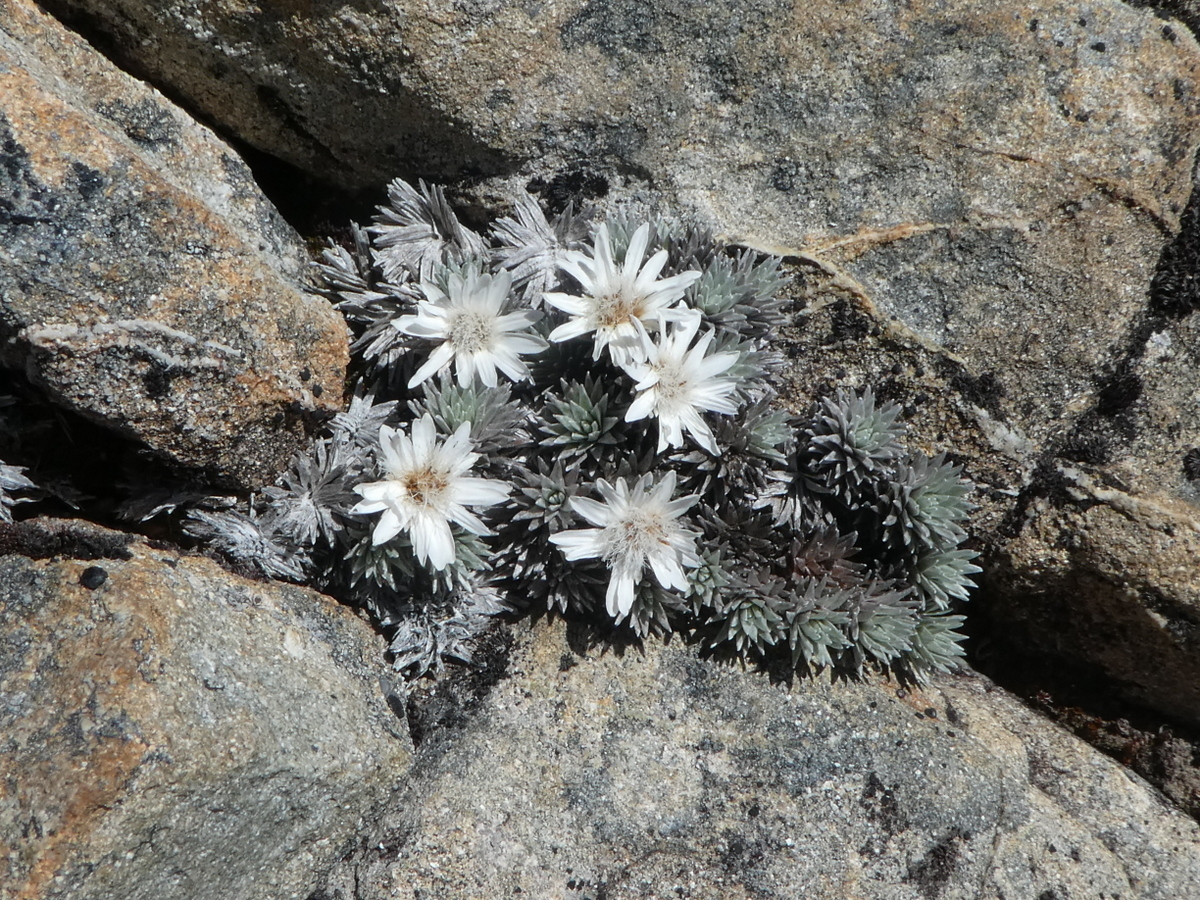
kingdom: Plantae
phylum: Tracheophyta
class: Magnoliopsida
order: Asterales
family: Asteraceae
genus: Raoulia
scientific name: Raoulia grandiflora
